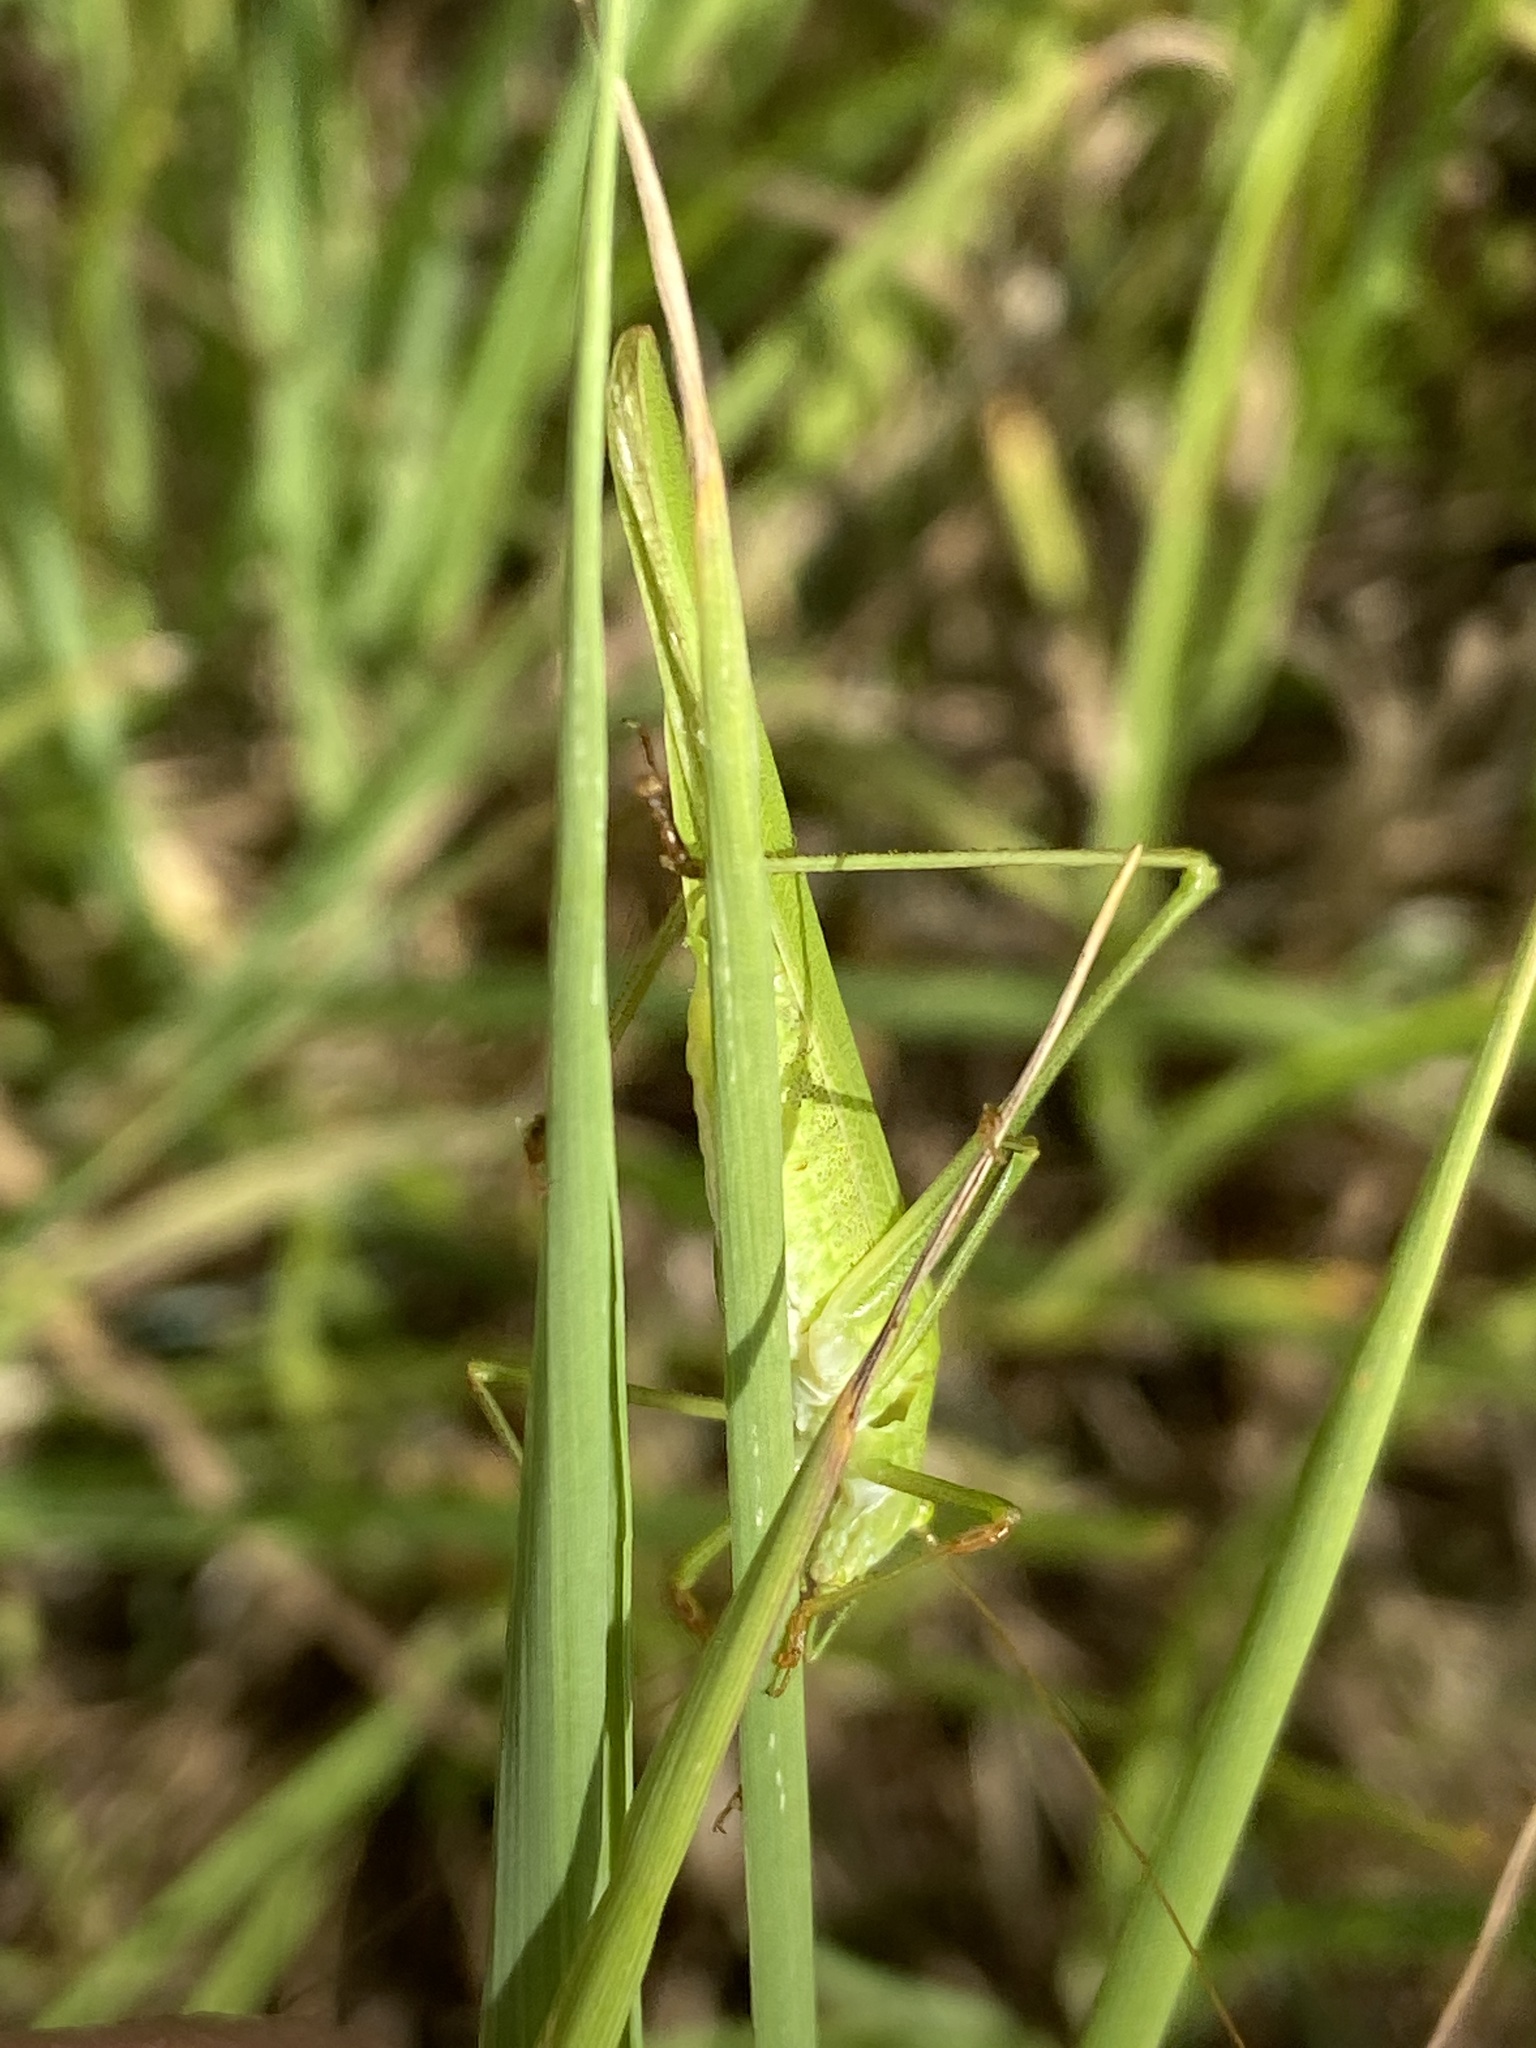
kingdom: Animalia
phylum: Arthropoda
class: Insecta
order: Orthoptera
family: Tettigoniidae
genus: Phaneroptera
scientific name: Phaneroptera falcata
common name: Sickle-bearing bush-cricket
